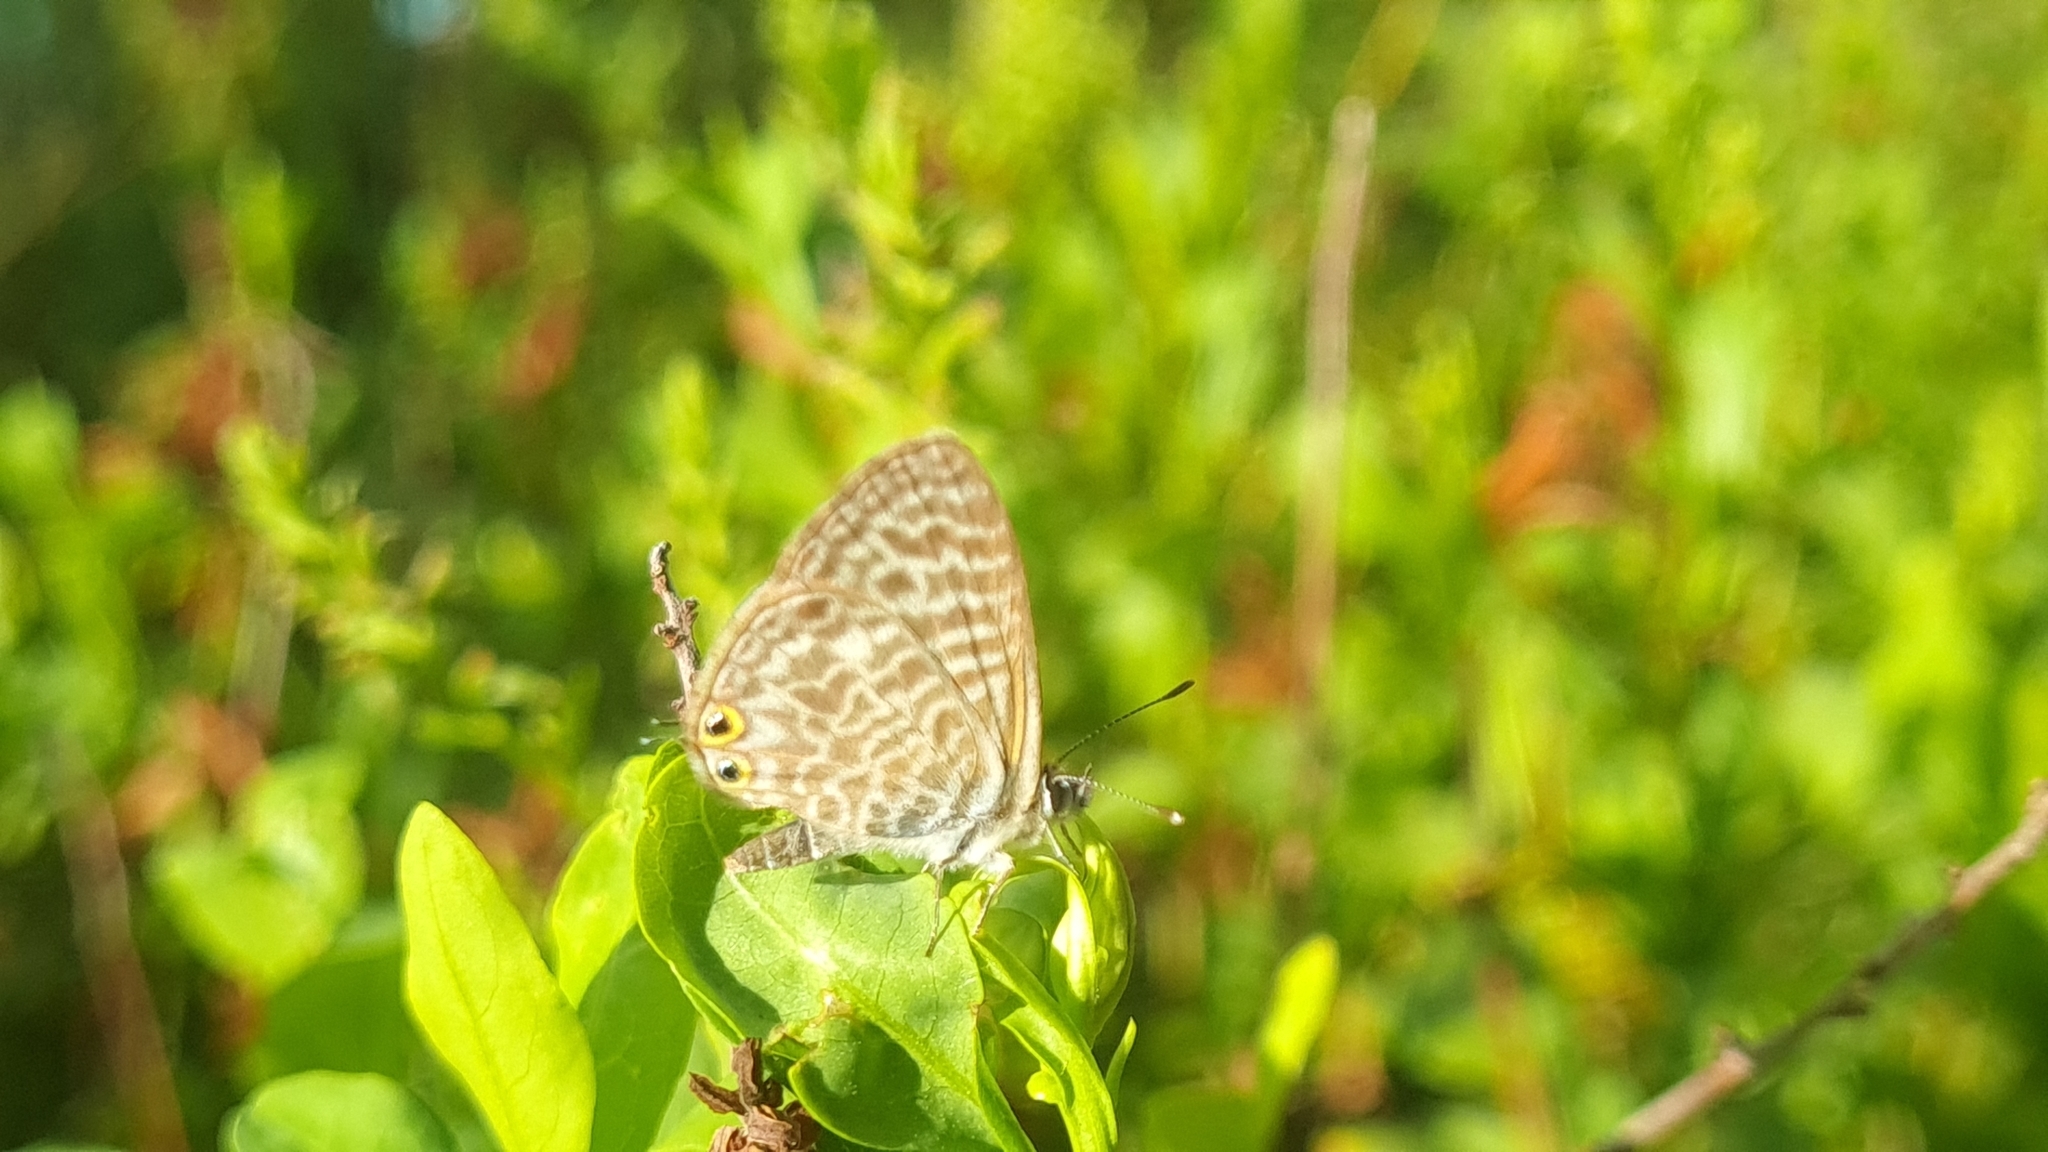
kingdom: Animalia
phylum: Arthropoda
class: Insecta
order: Lepidoptera
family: Lycaenidae
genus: Leptotes
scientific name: Leptotes pirithous
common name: Lang's short-tailed blue
